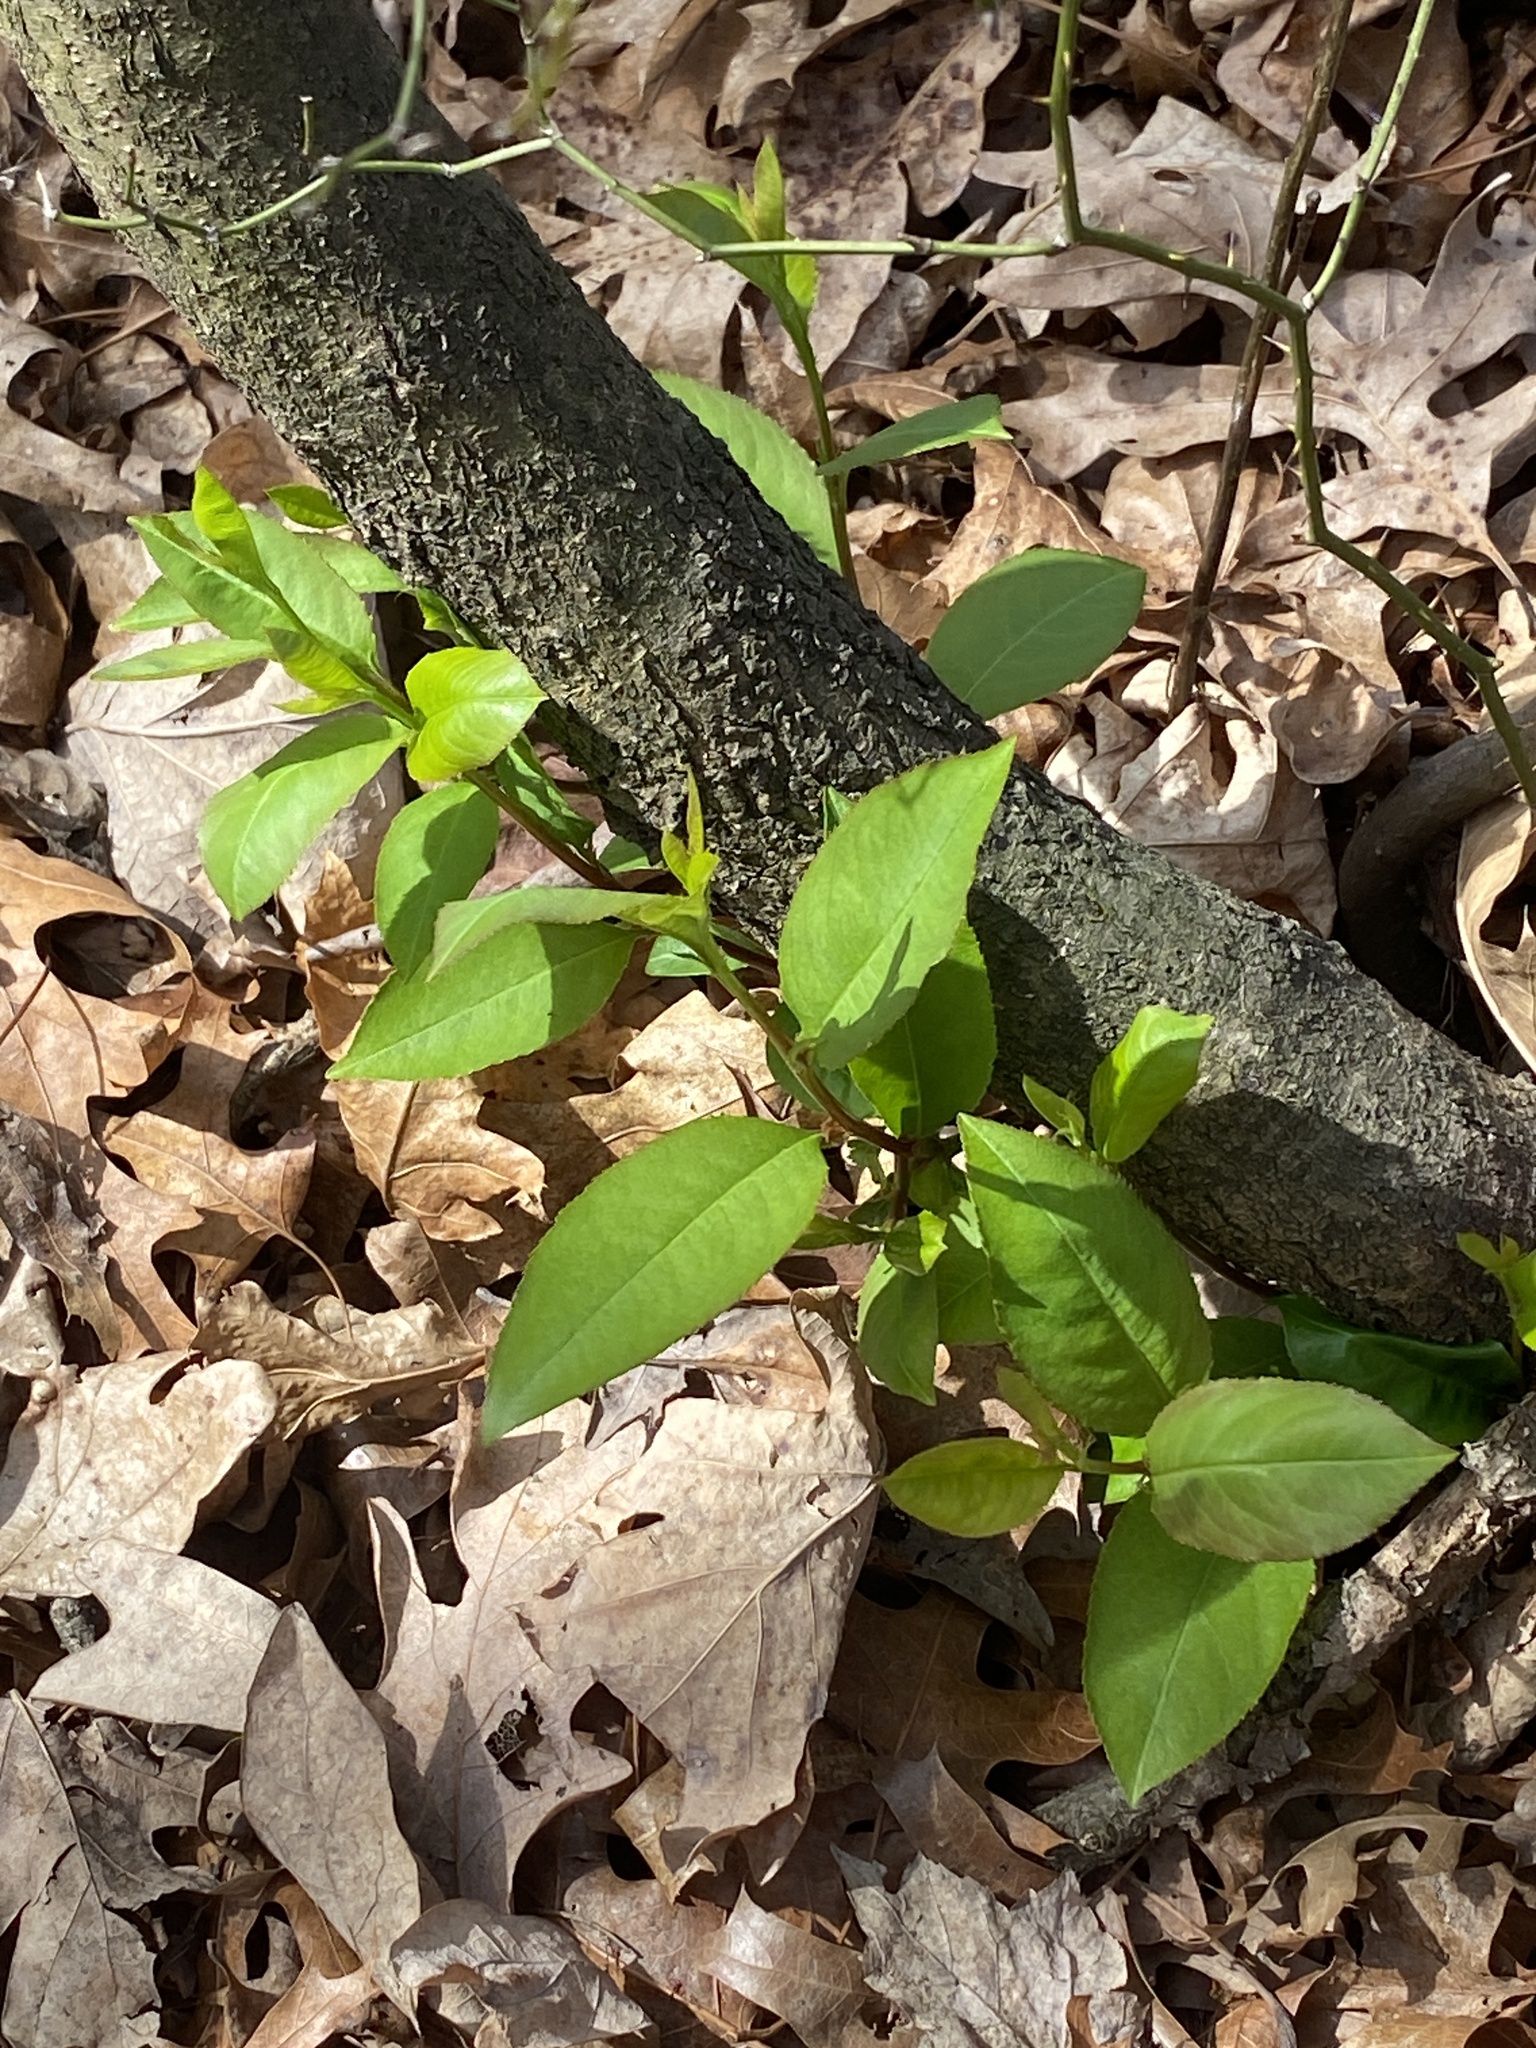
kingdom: Plantae
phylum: Tracheophyta
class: Magnoliopsida
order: Rosales
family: Rosaceae
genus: Prunus
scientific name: Prunus serotina
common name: Black cherry
